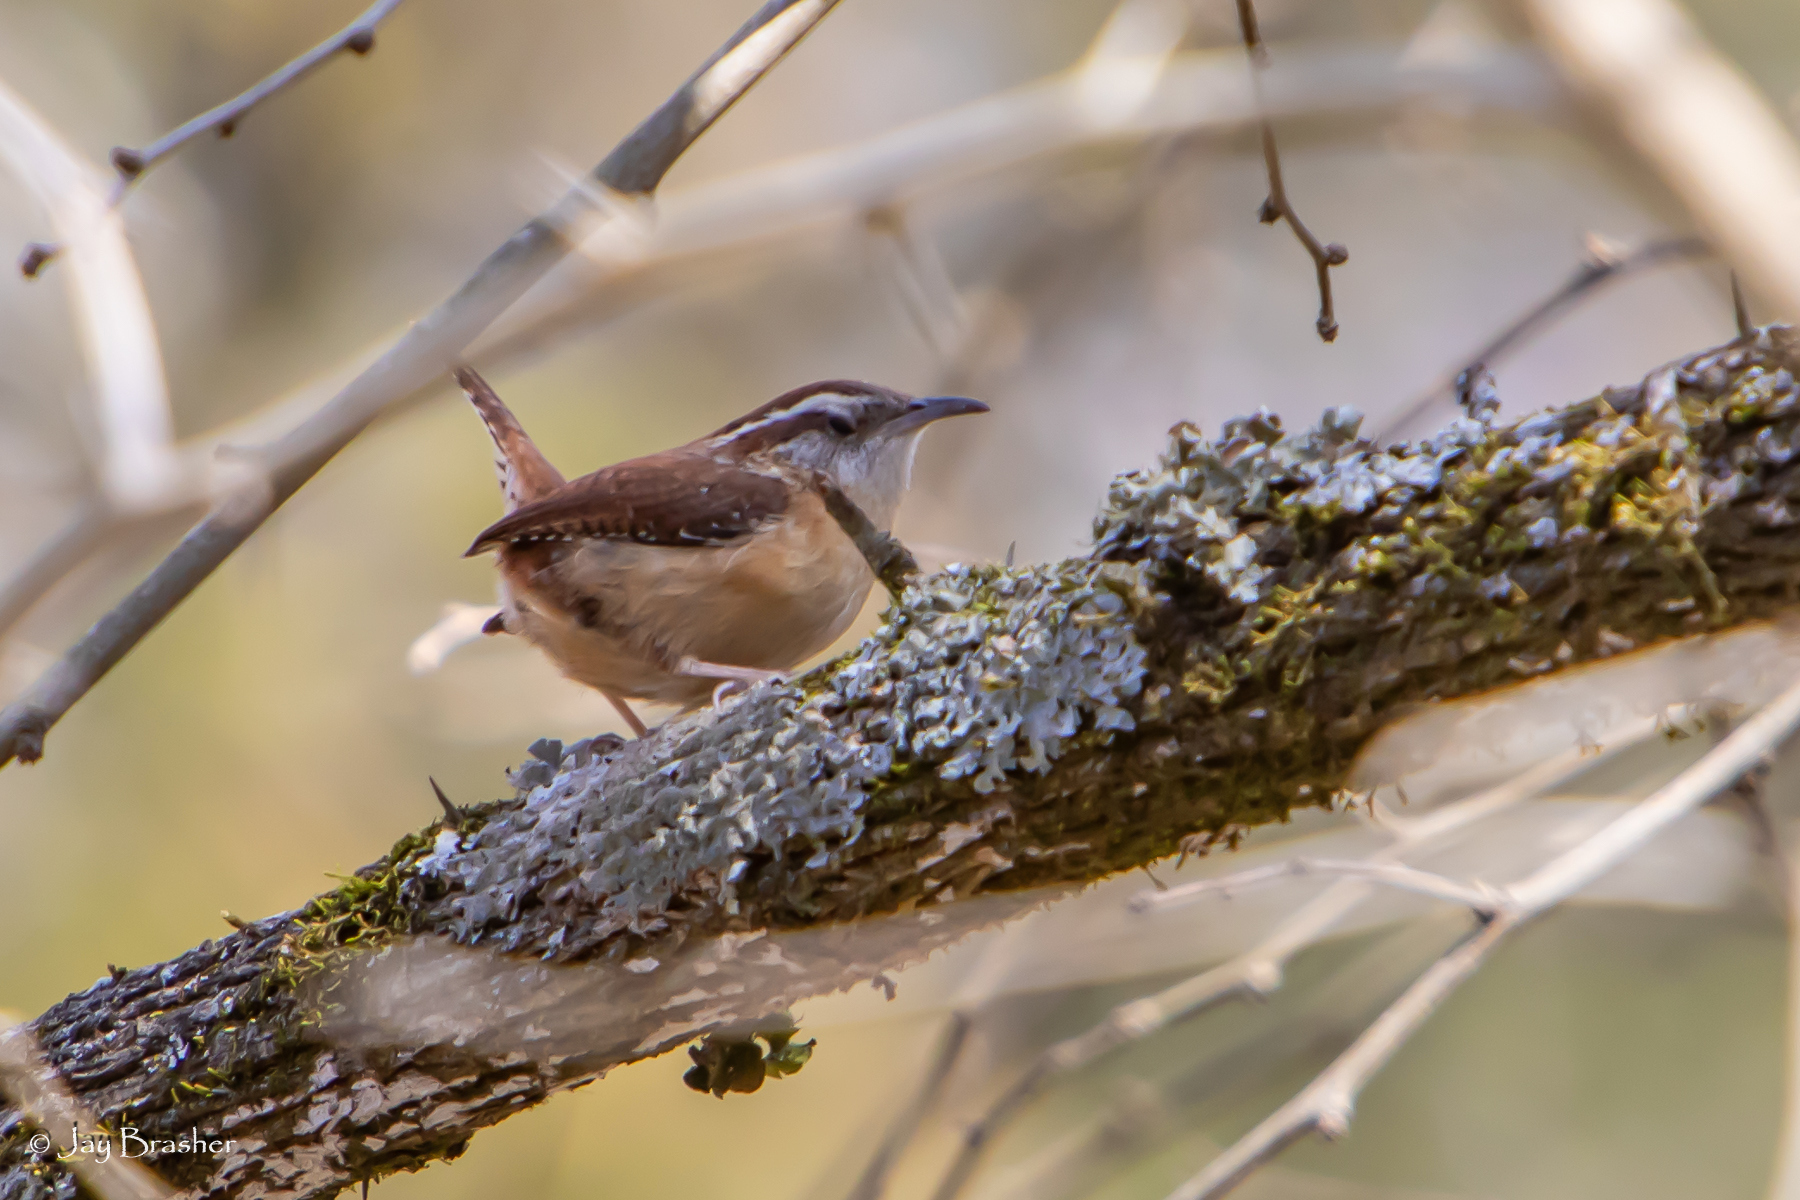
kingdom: Animalia
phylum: Chordata
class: Aves
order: Passeriformes
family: Troglodytidae
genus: Thryothorus
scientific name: Thryothorus ludovicianus
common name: Carolina wren
